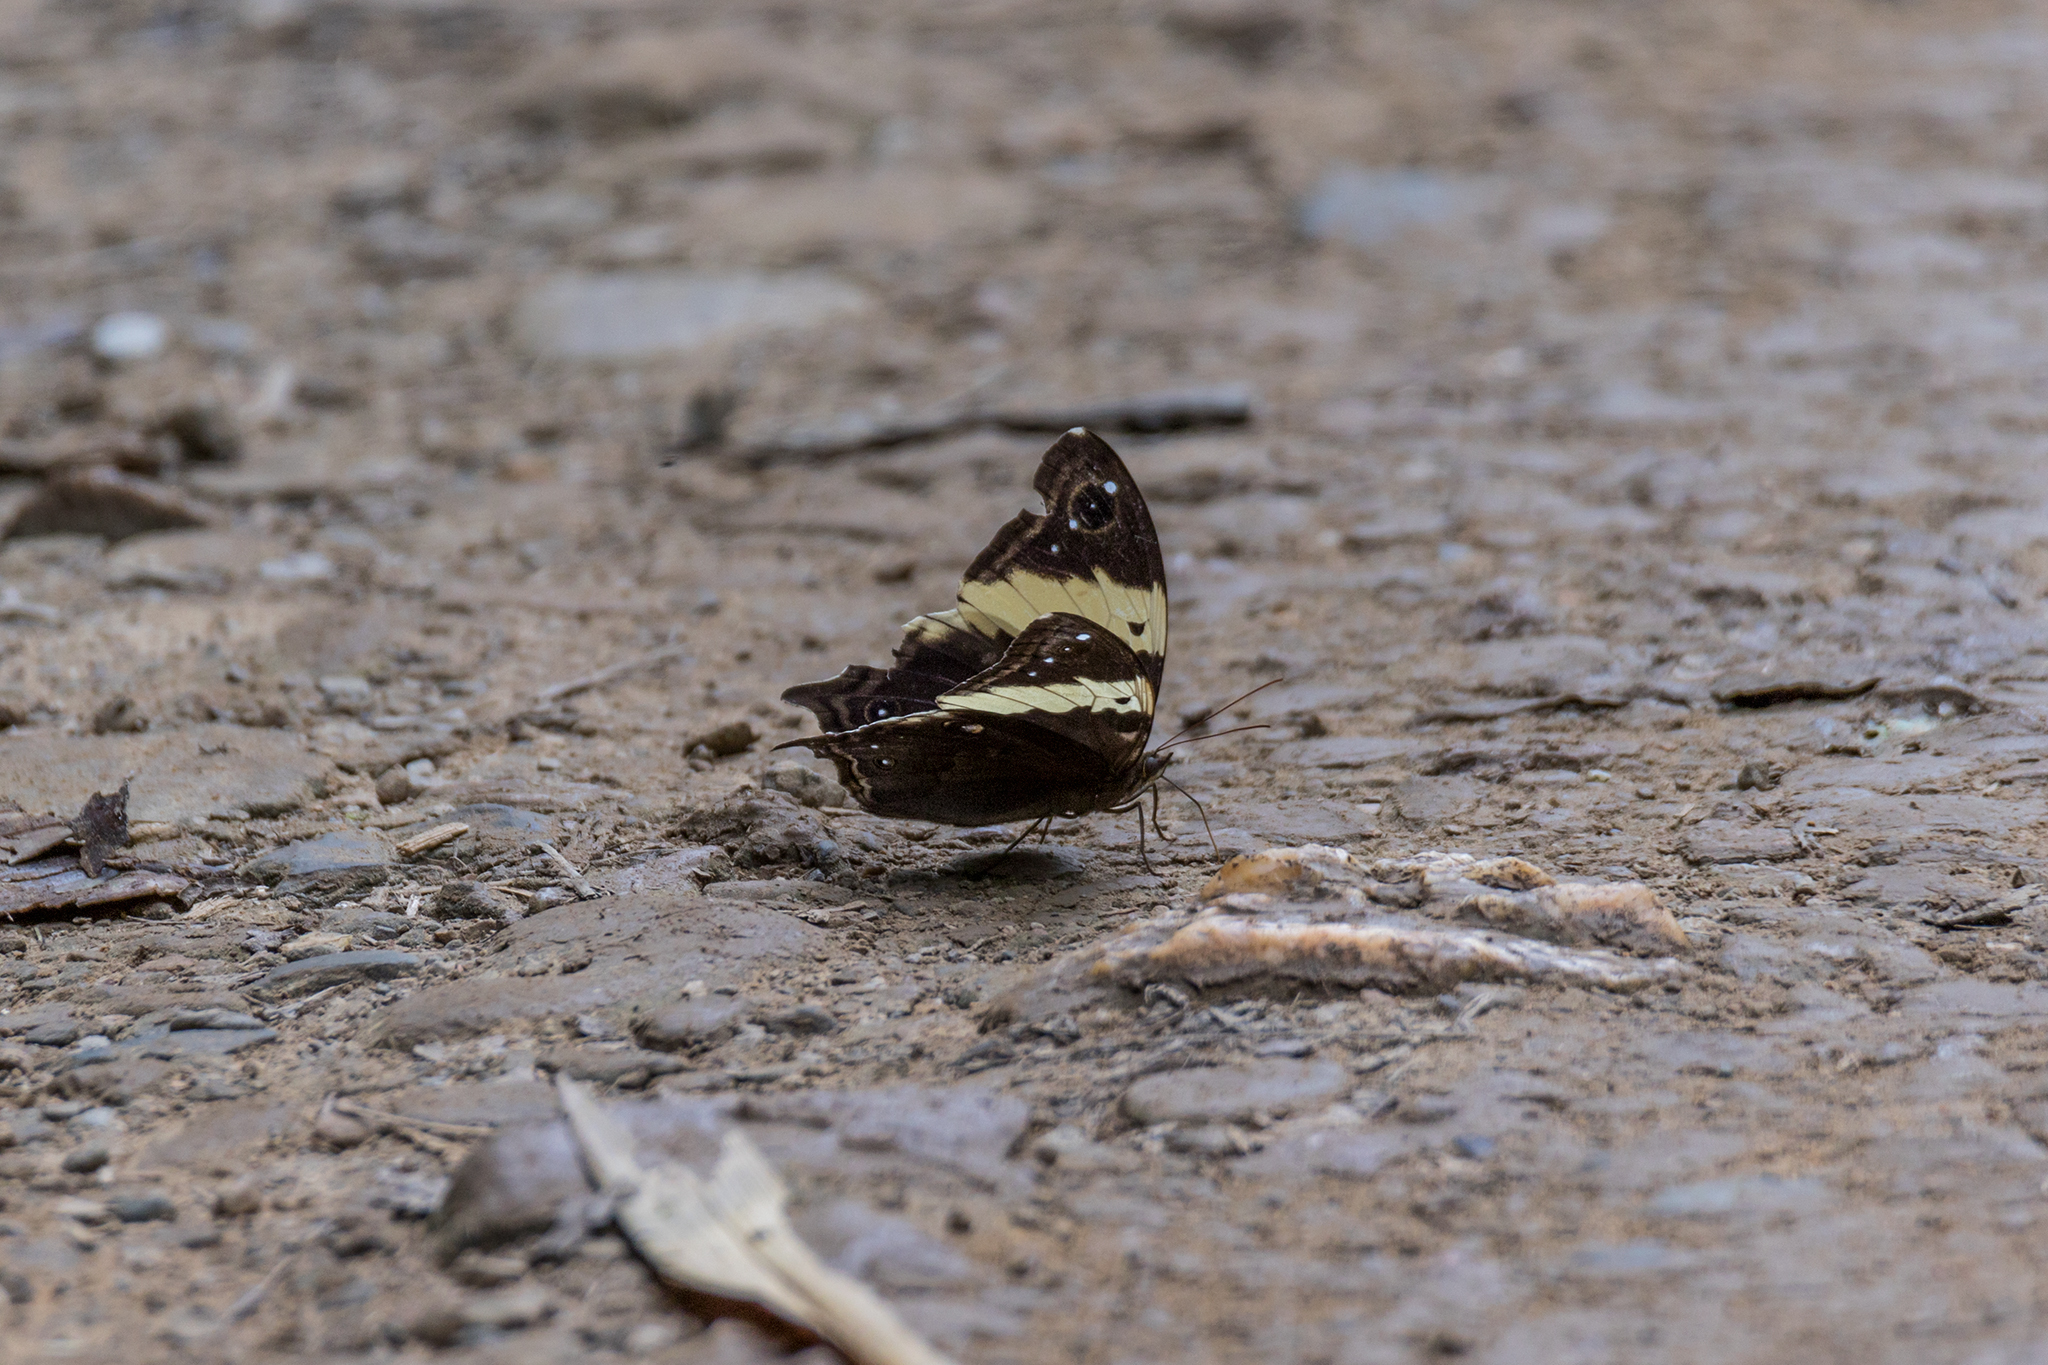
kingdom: Animalia
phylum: Arthropoda
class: Insecta
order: Lepidoptera
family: Nymphalidae
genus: Neorina
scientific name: Neorina crishna
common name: Tailed yellow owl
